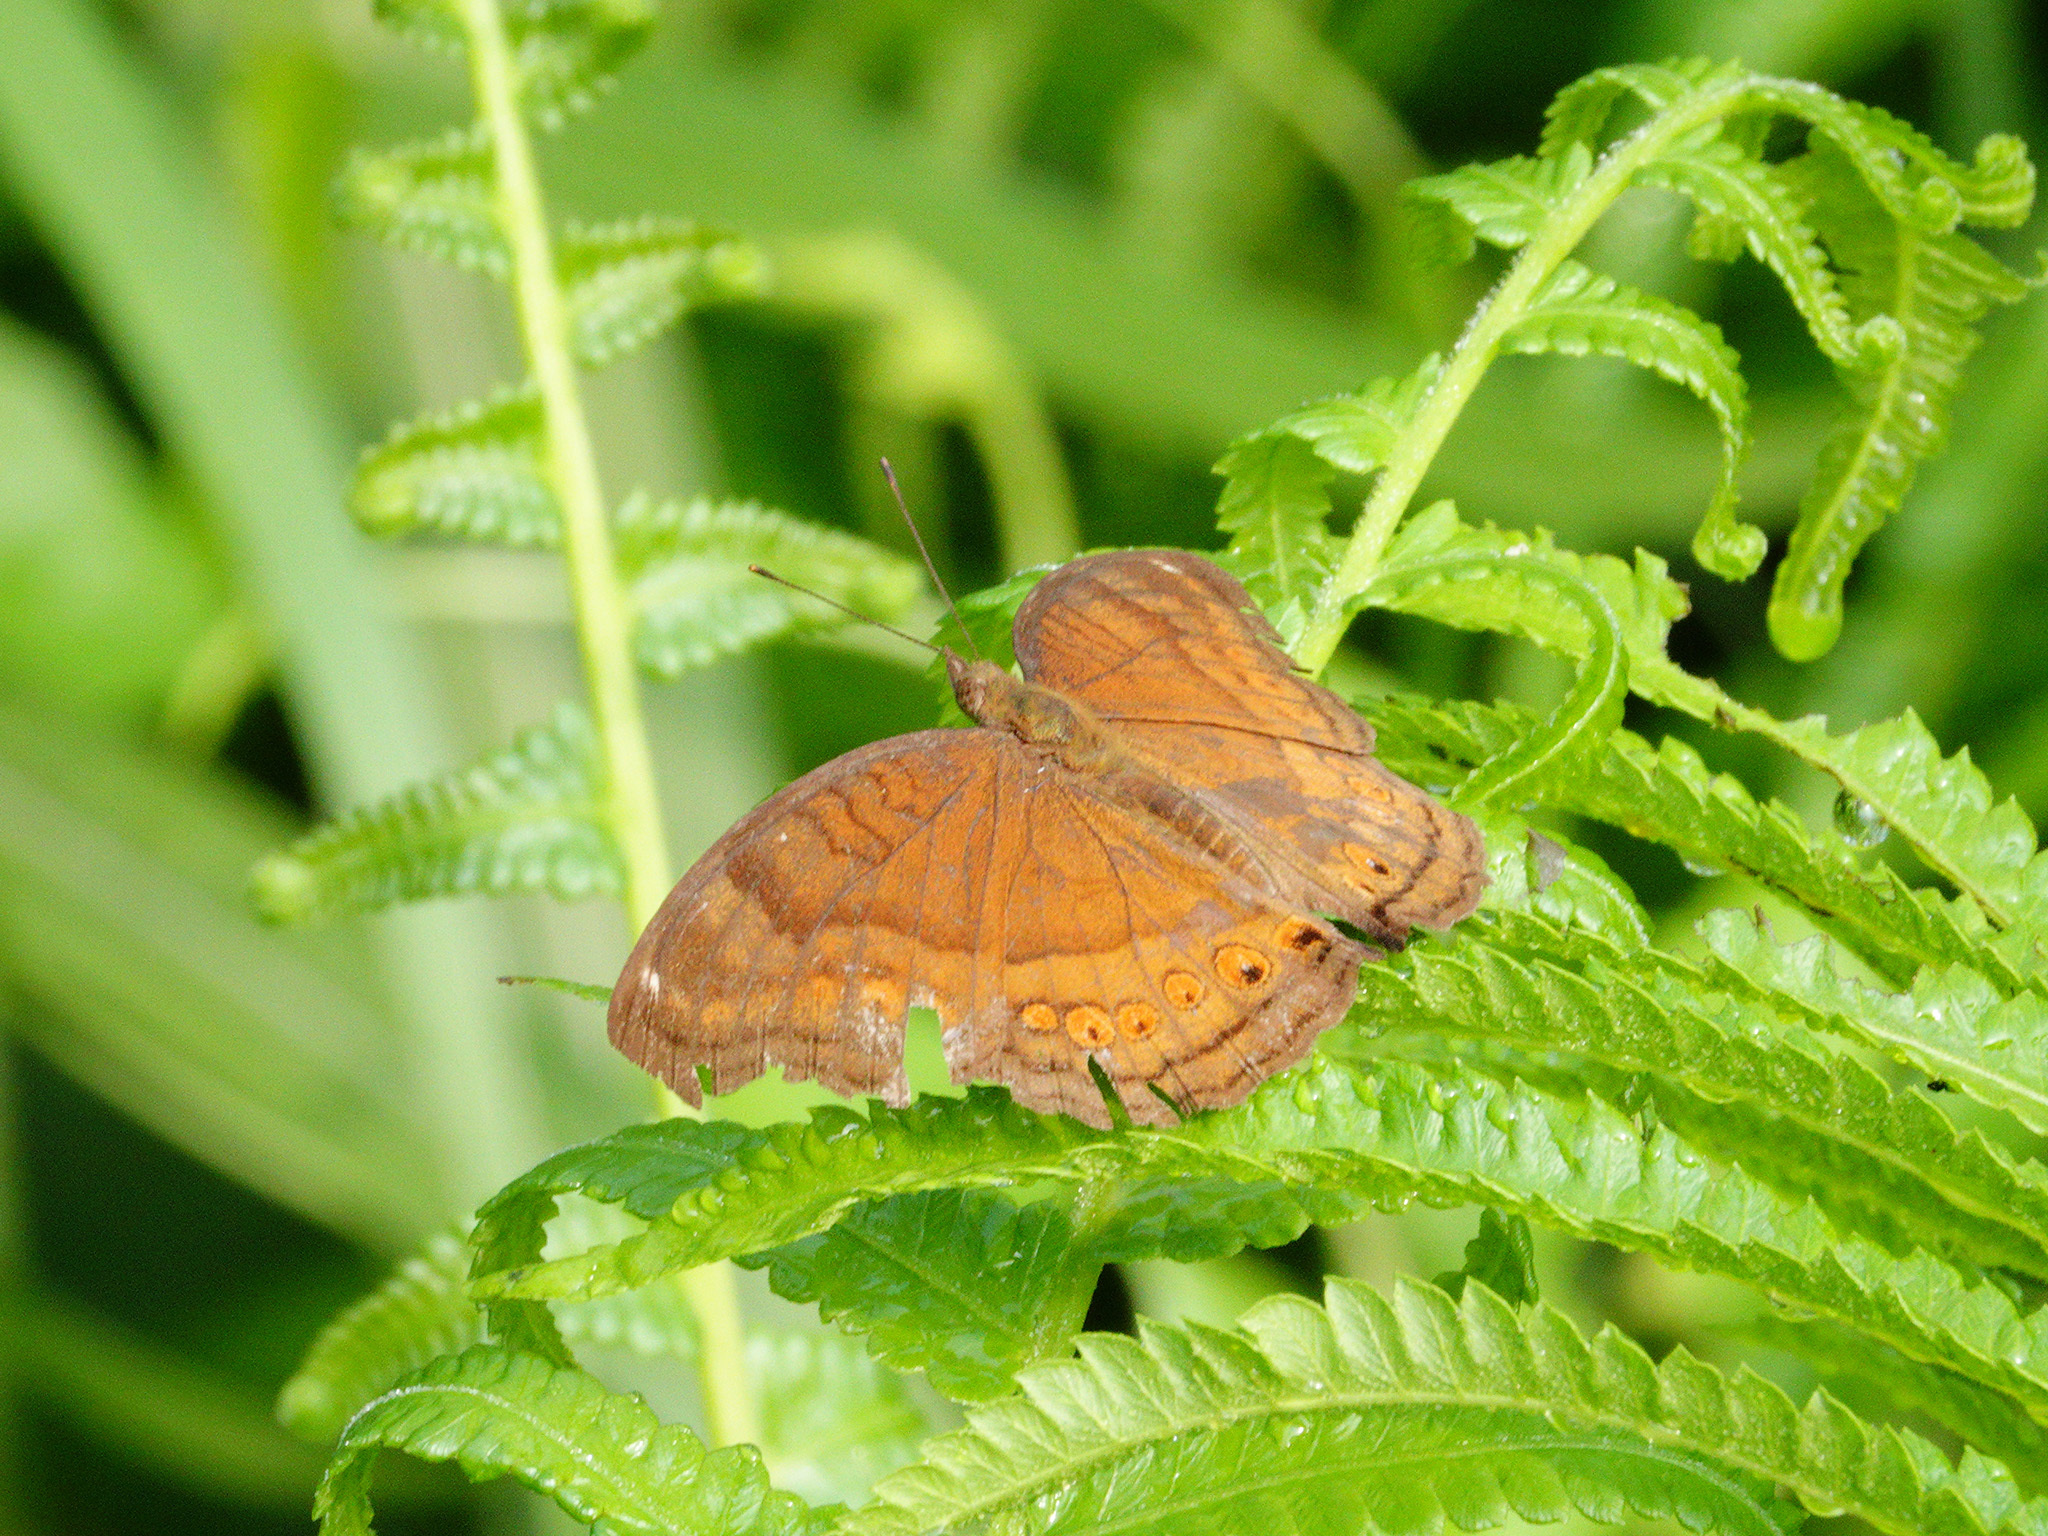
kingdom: Animalia
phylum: Arthropoda
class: Insecta
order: Lepidoptera
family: Nymphalidae
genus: Junonia
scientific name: Junonia hedonia
